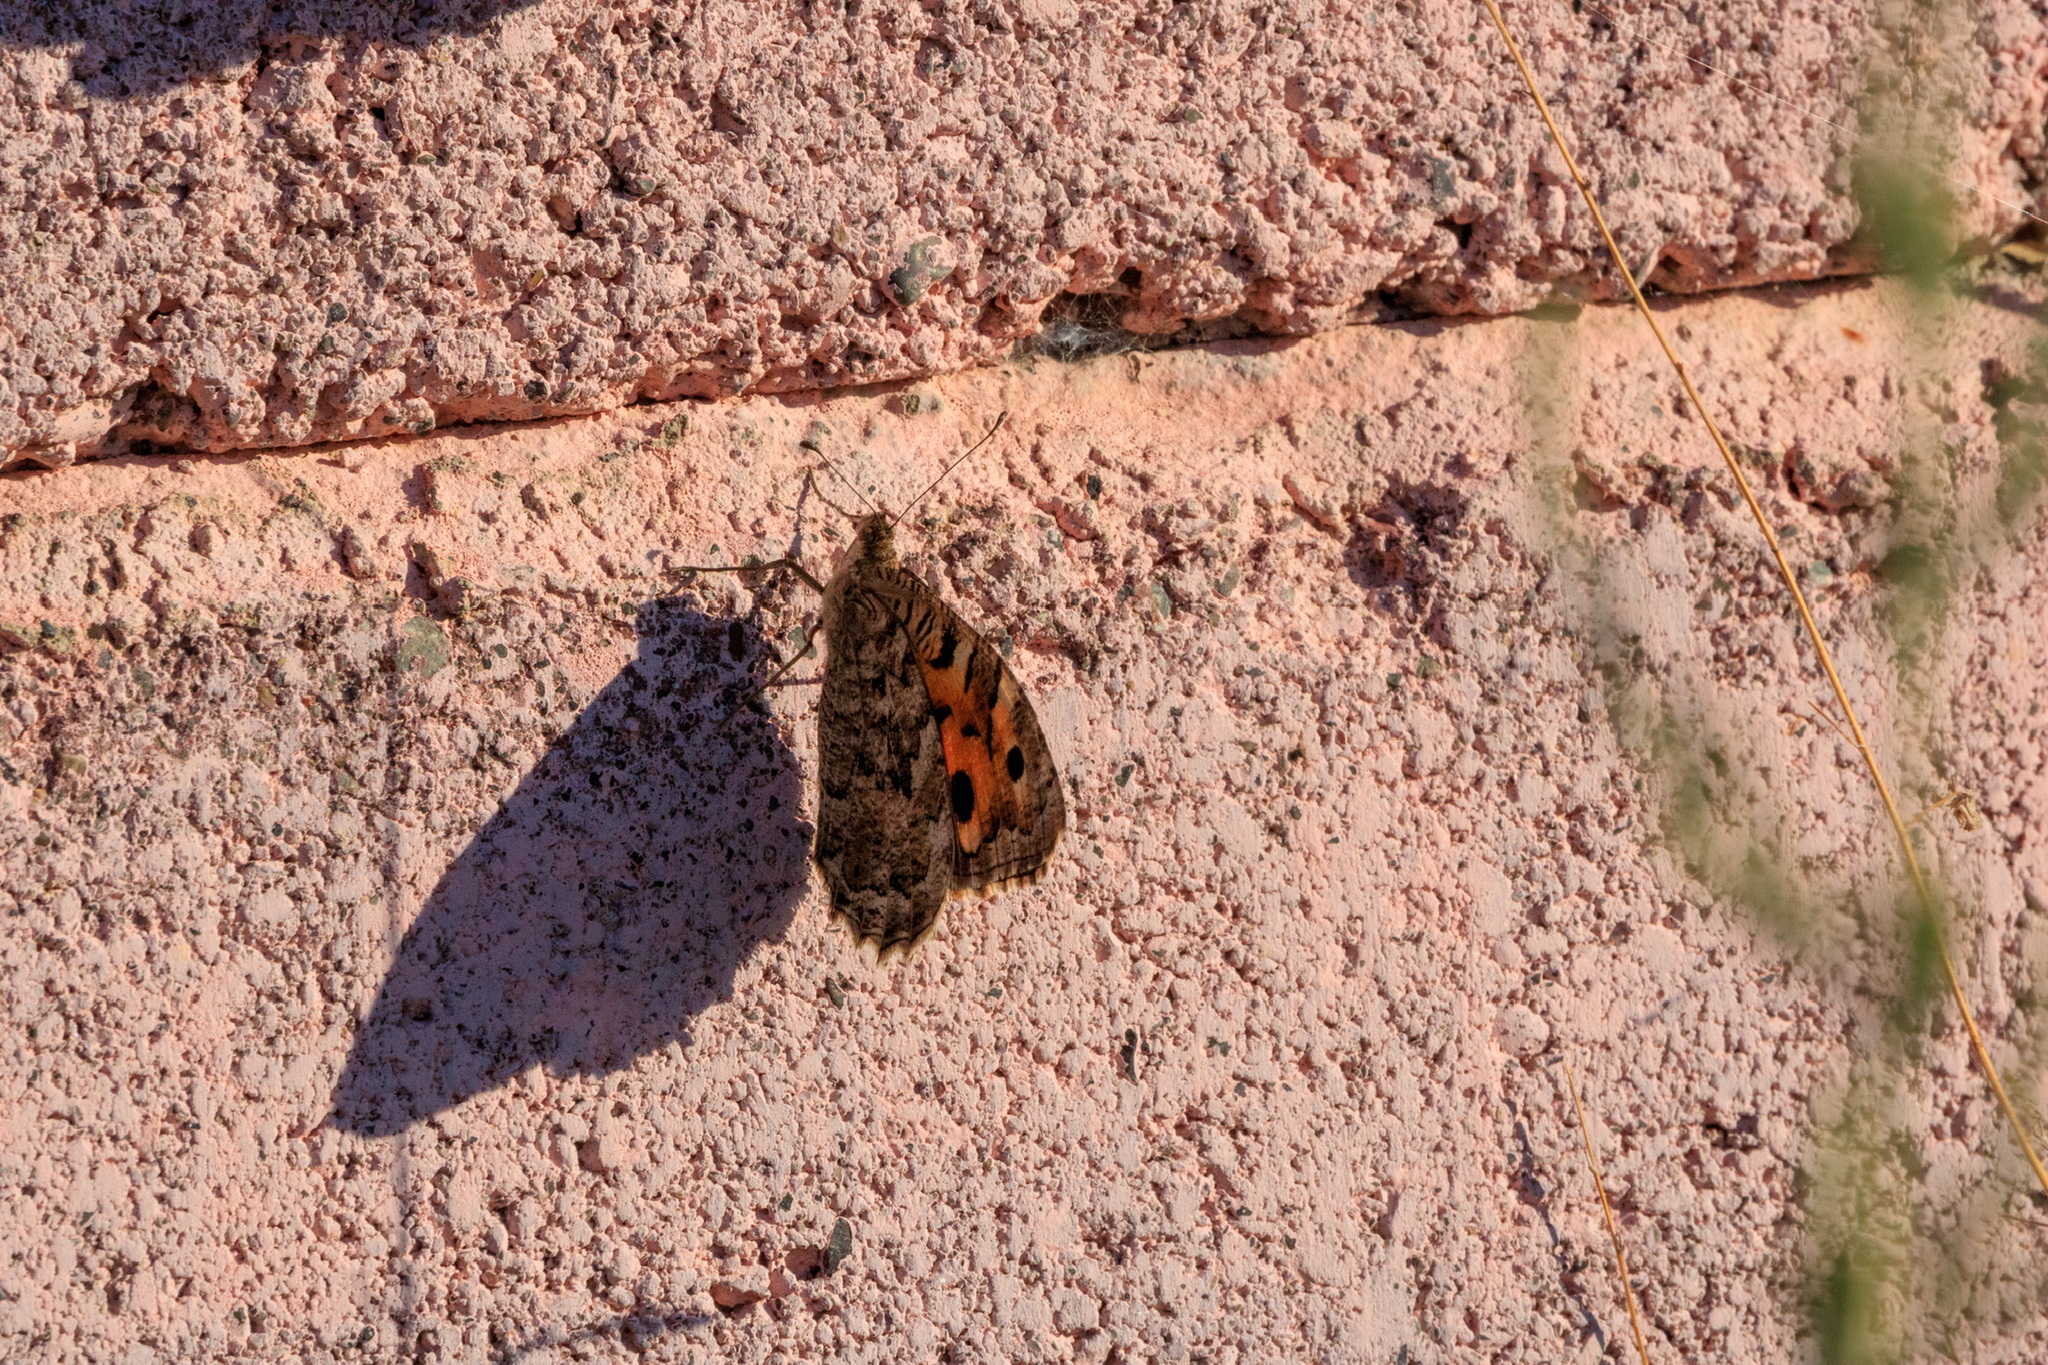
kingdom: Animalia
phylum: Arthropoda
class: Insecta
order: Lepidoptera
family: Nymphalidae
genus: Satyrus
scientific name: Satyrus Chazara enervata
